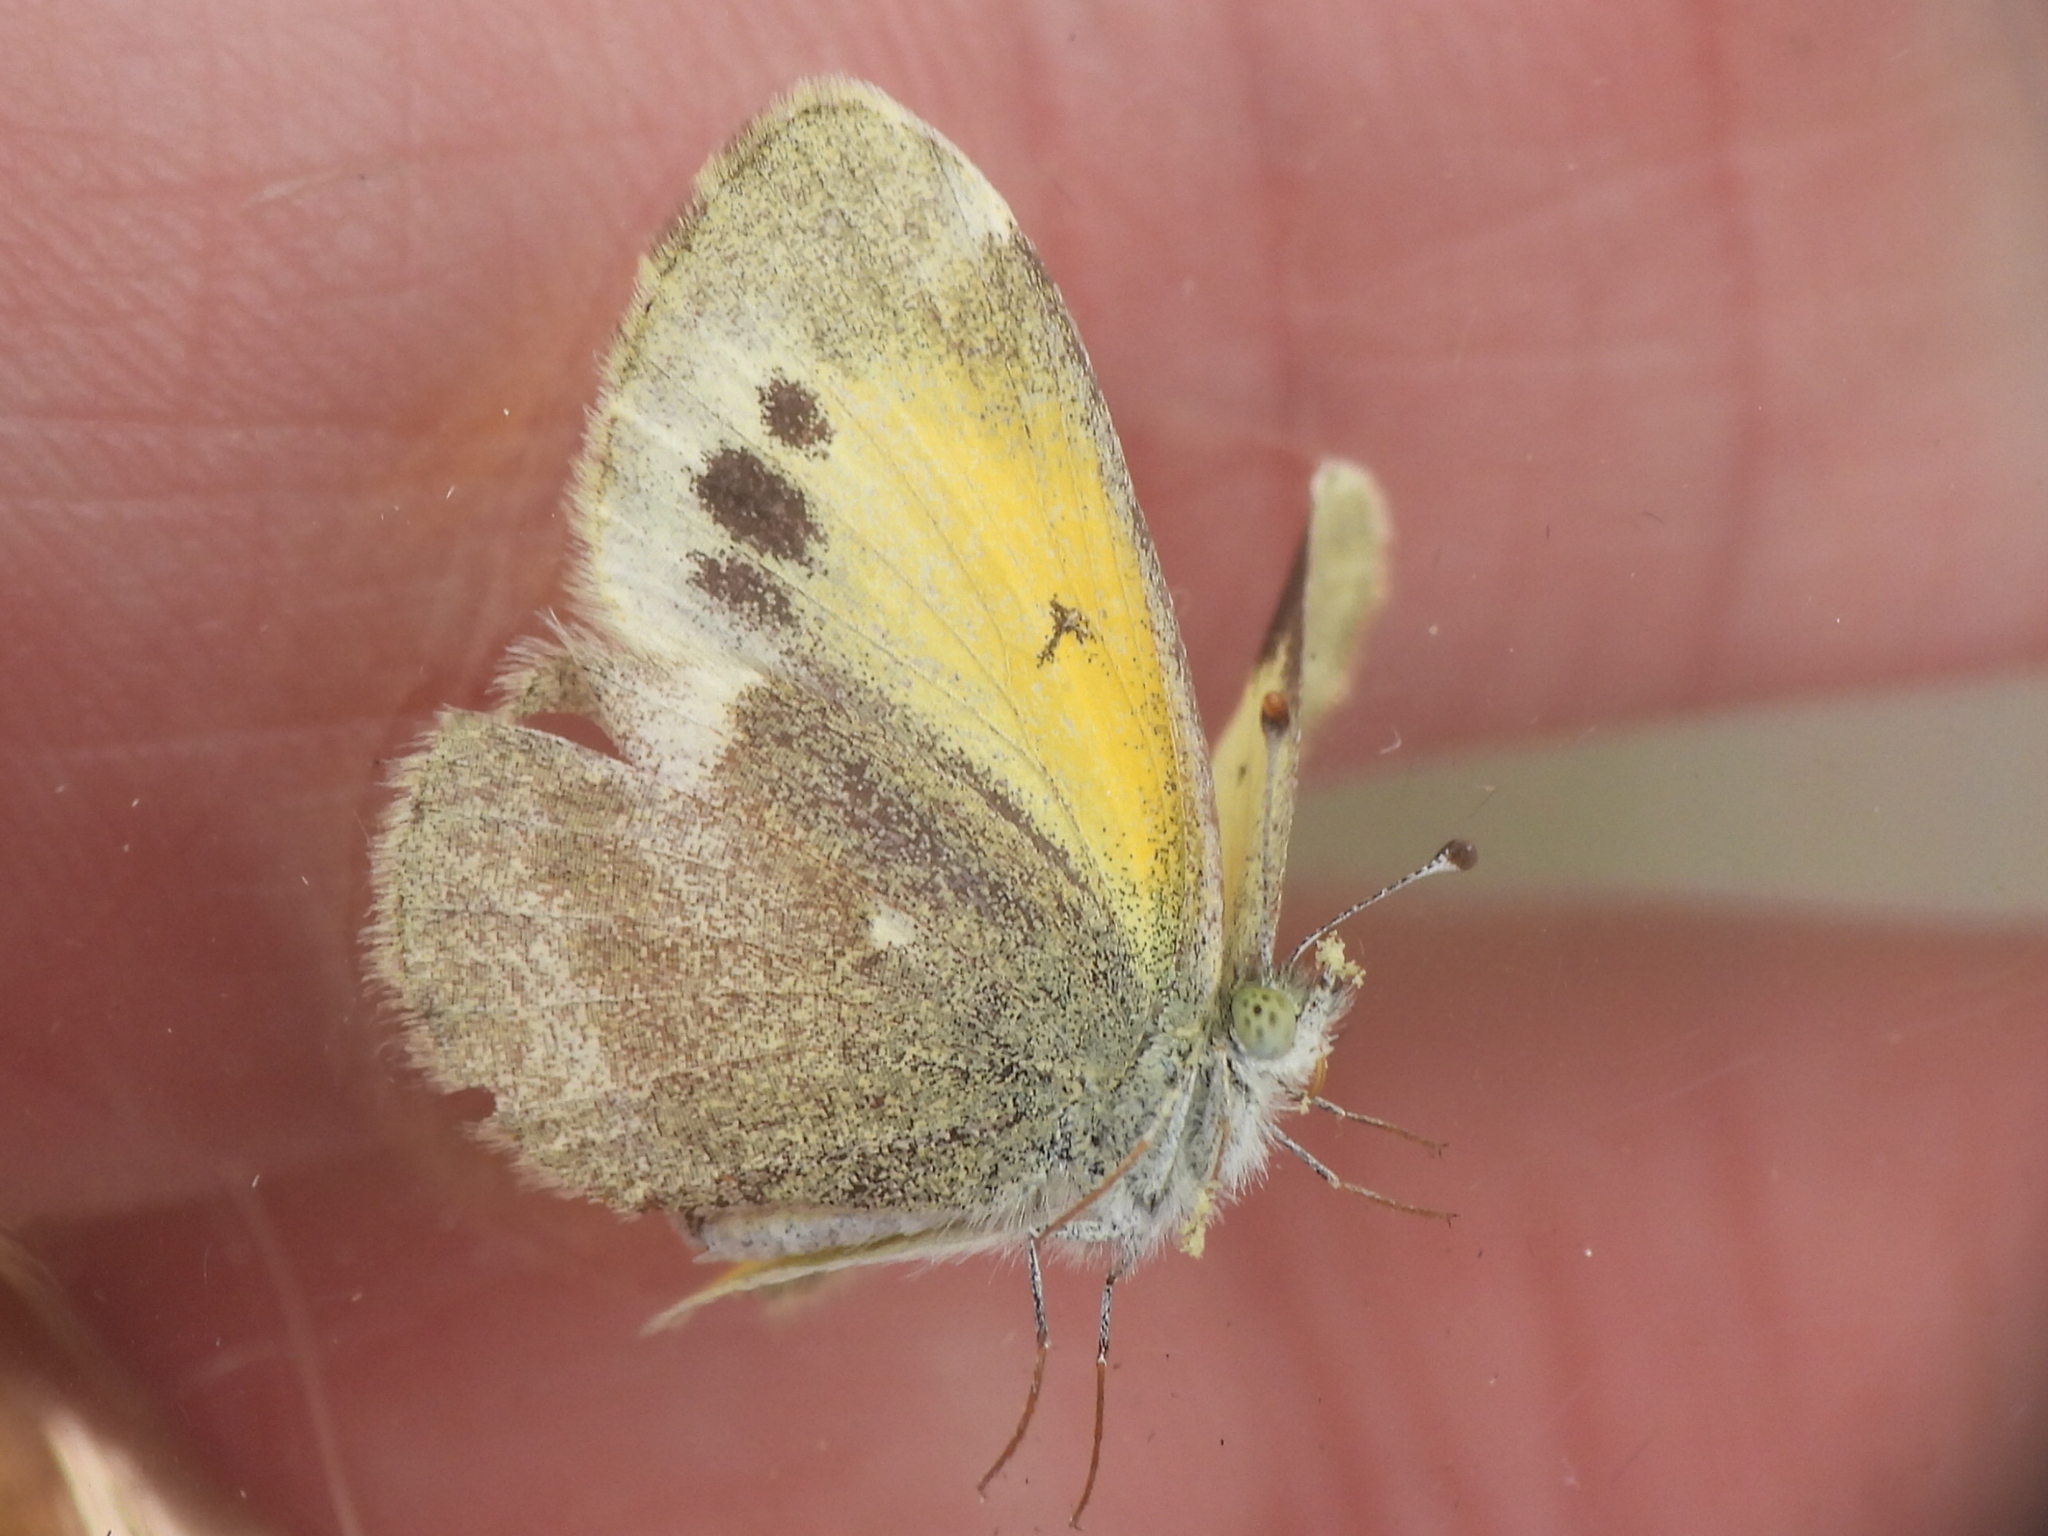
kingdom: Animalia
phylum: Arthropoda
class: Insecta
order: Lepidoptera
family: Pieridae
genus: Nathalis
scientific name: Nathalis iole
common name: Dainty sulphur
